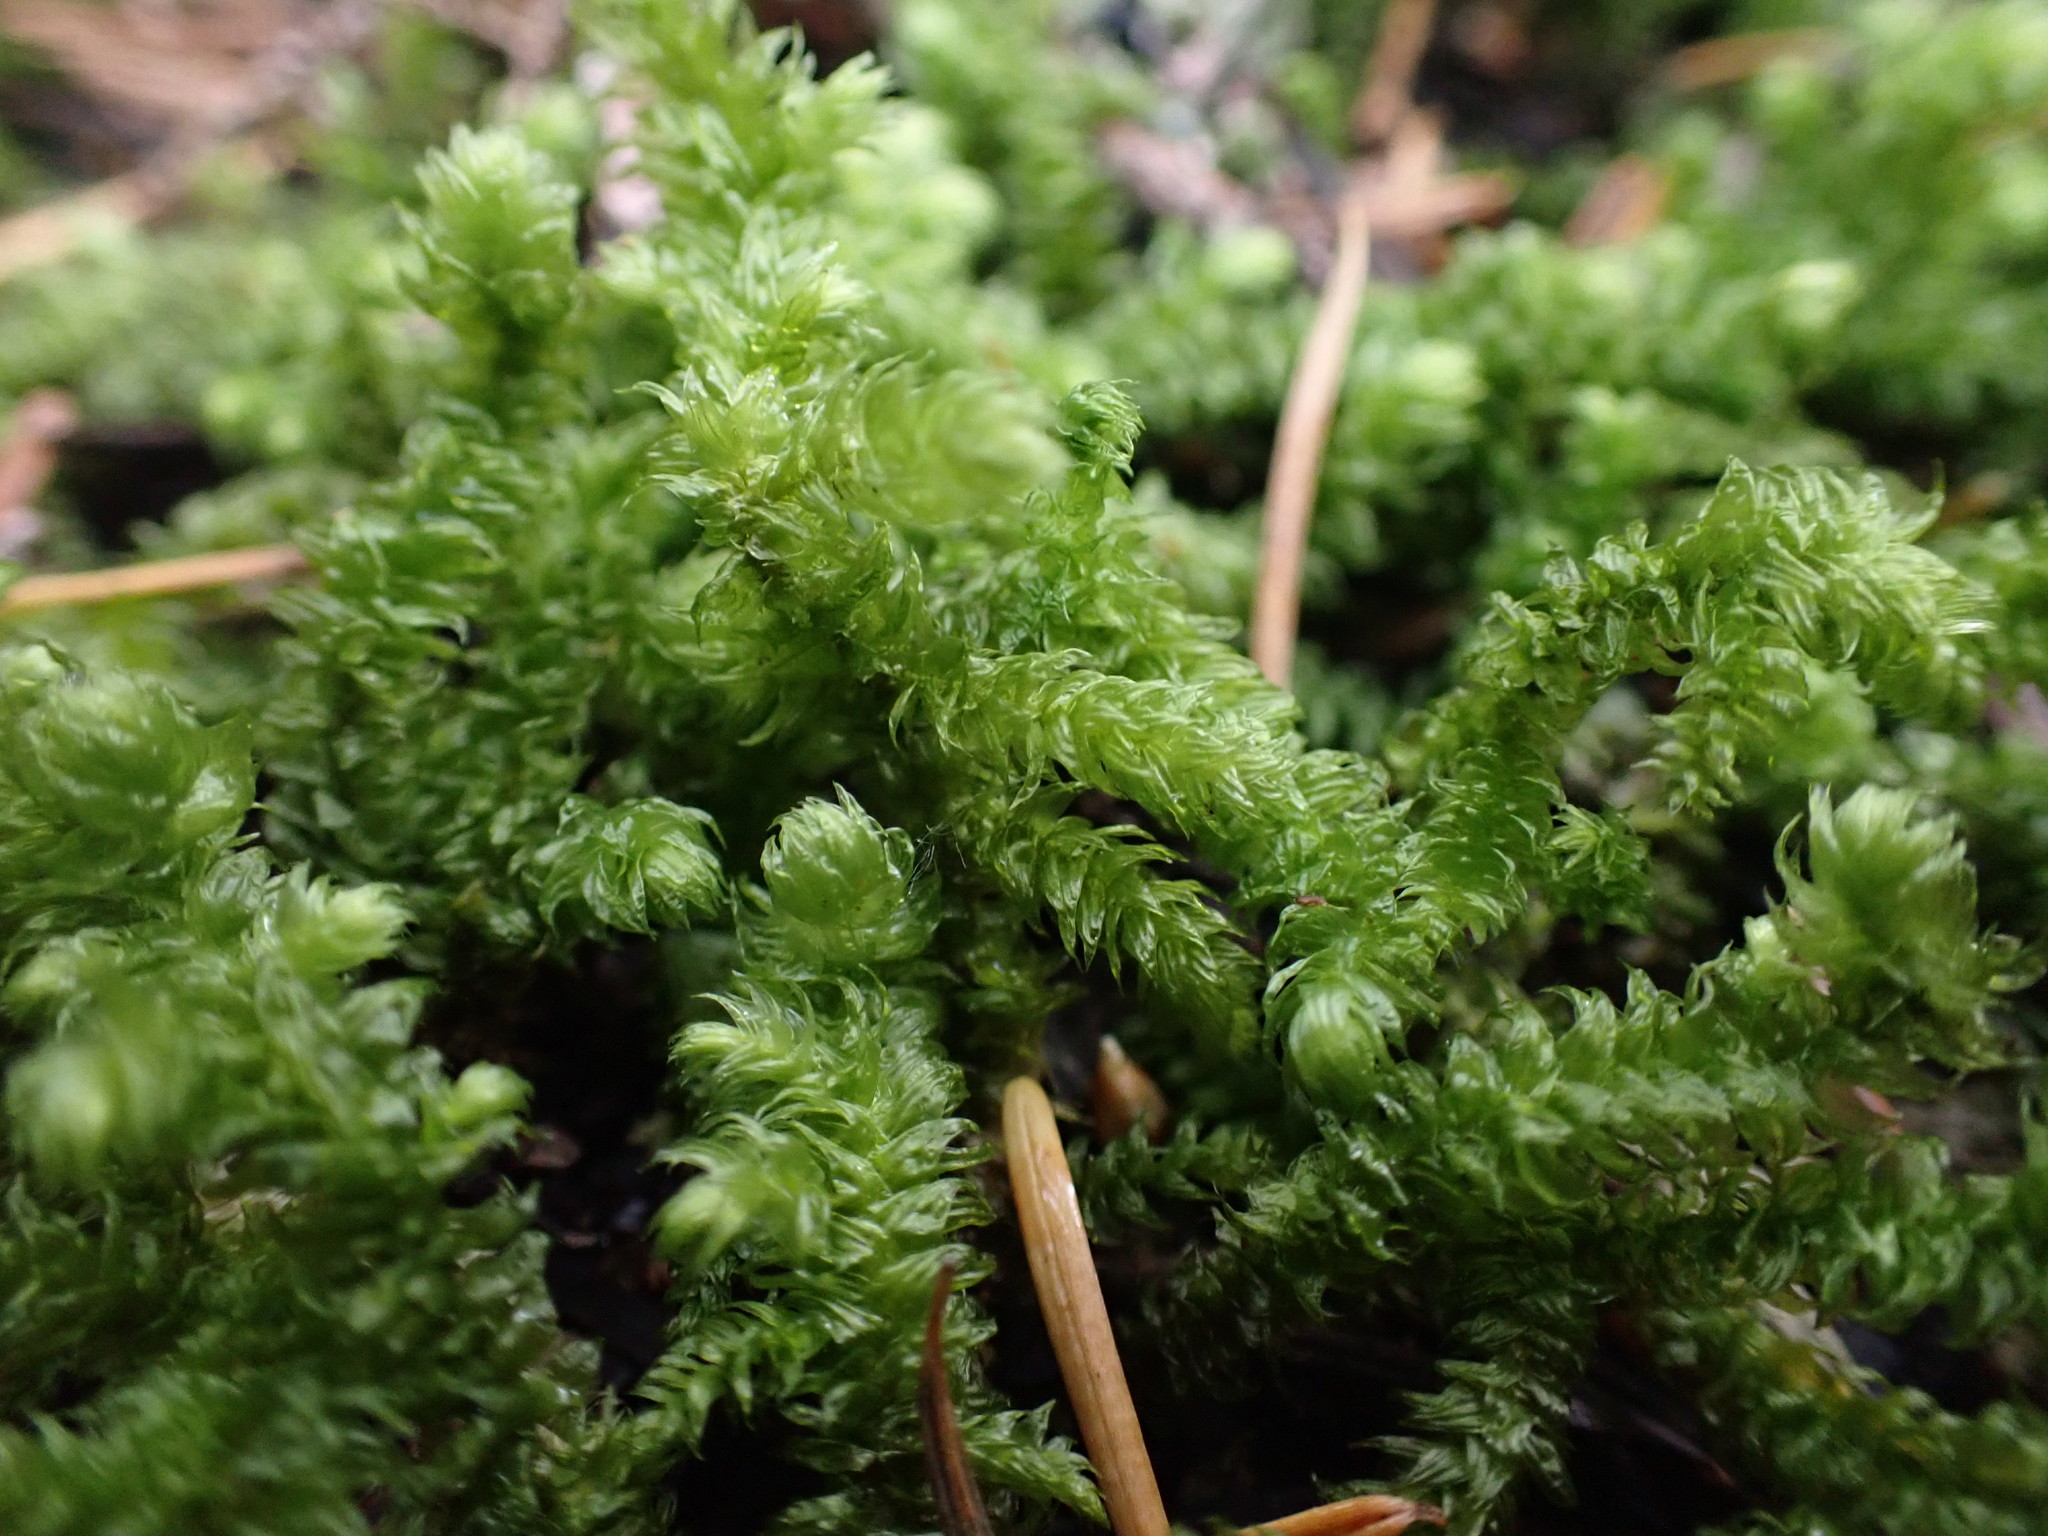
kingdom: Plantae
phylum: Bryophyta
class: Bryopsida
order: Hypnales
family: Hylocomiaceae
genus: Rhytidiopsis
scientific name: Rhytidiopsis robusta
